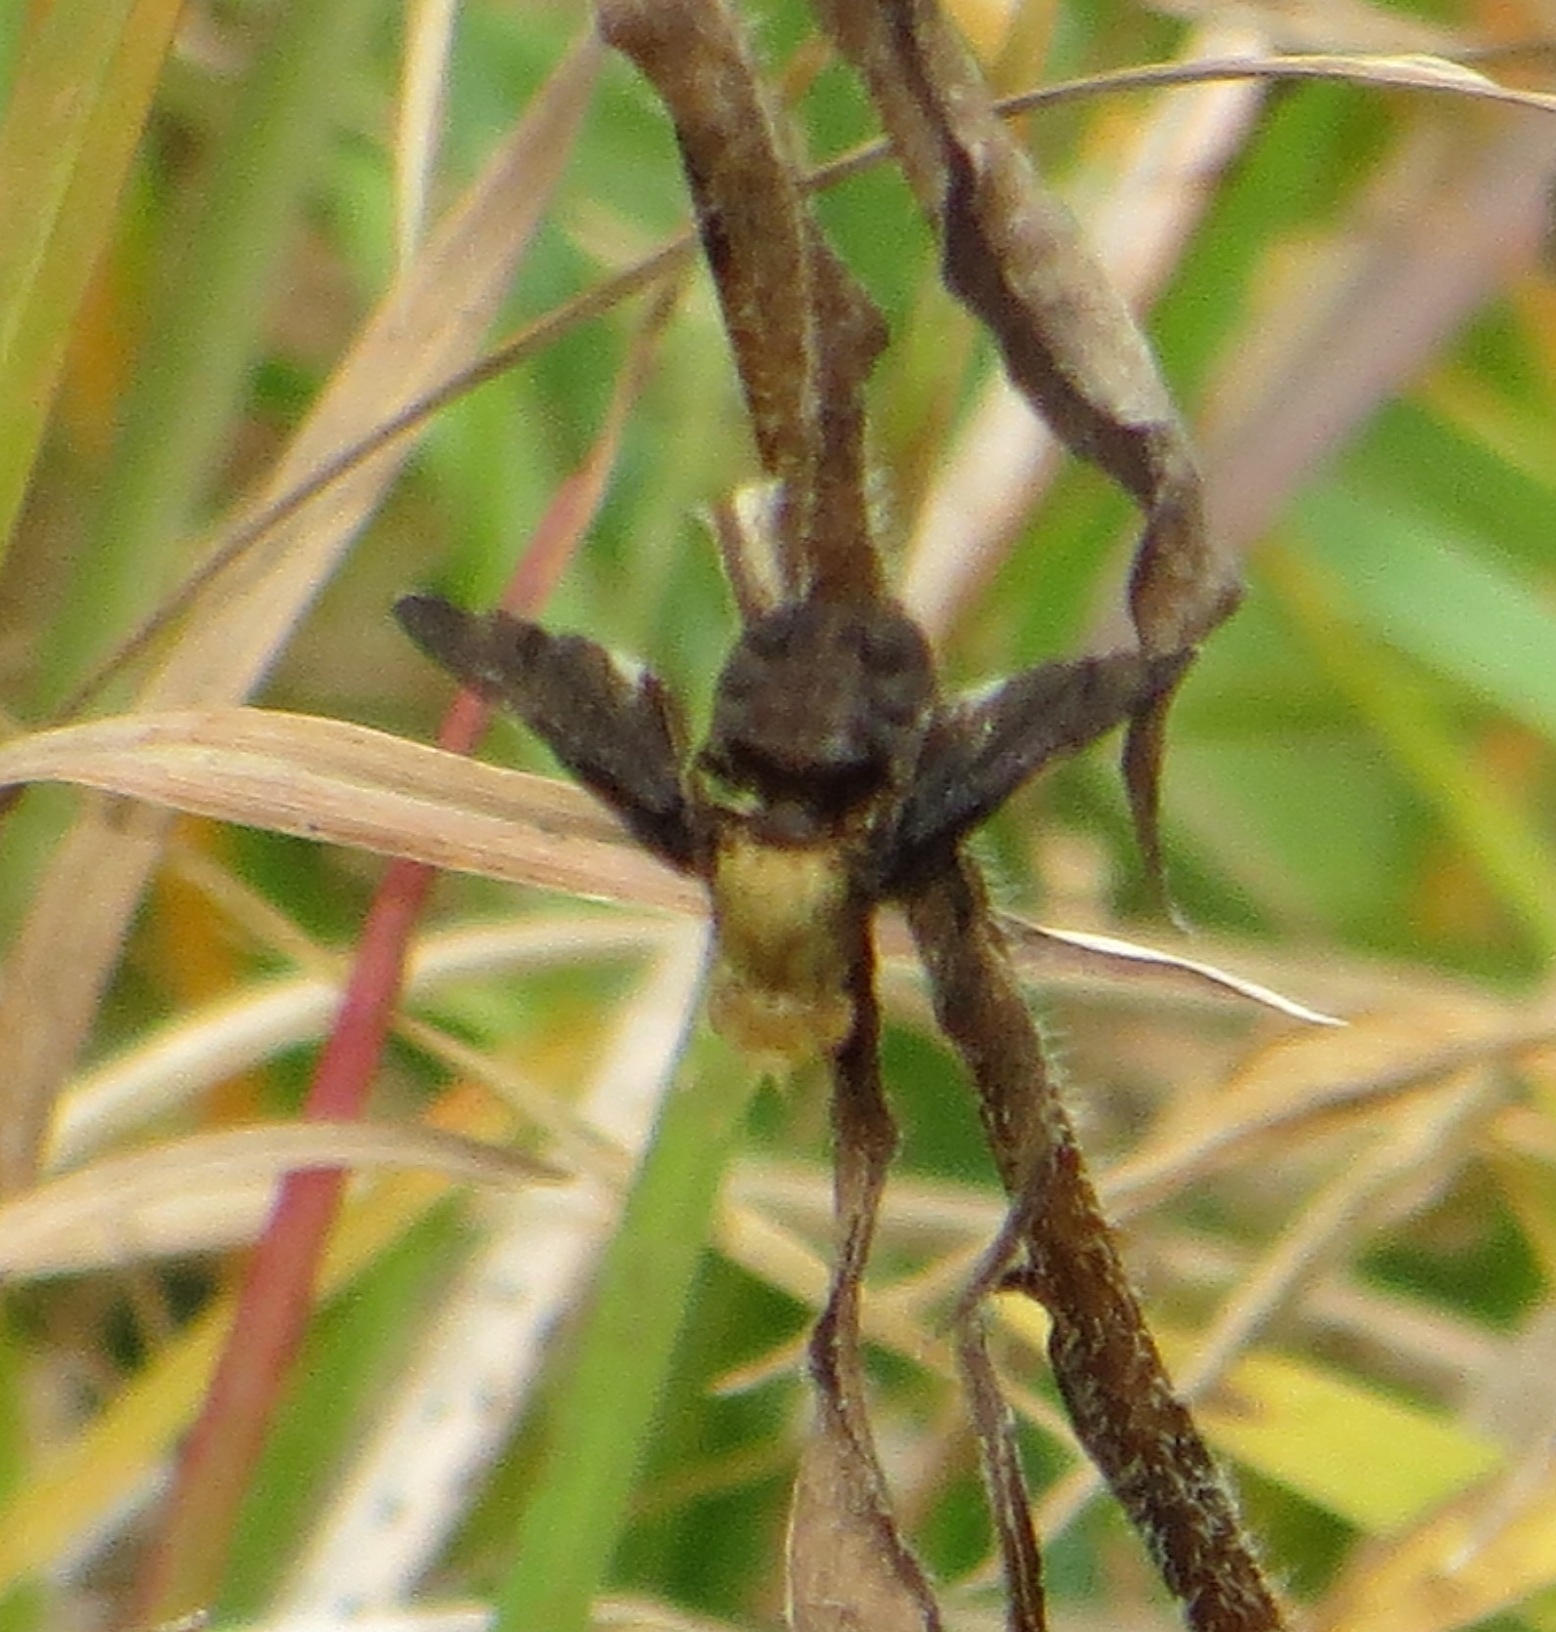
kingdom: Animalia
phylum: Arthropoda
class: Insecta
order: Diptera
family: Tephritidae
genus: Eurosta
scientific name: Eurosta comma
